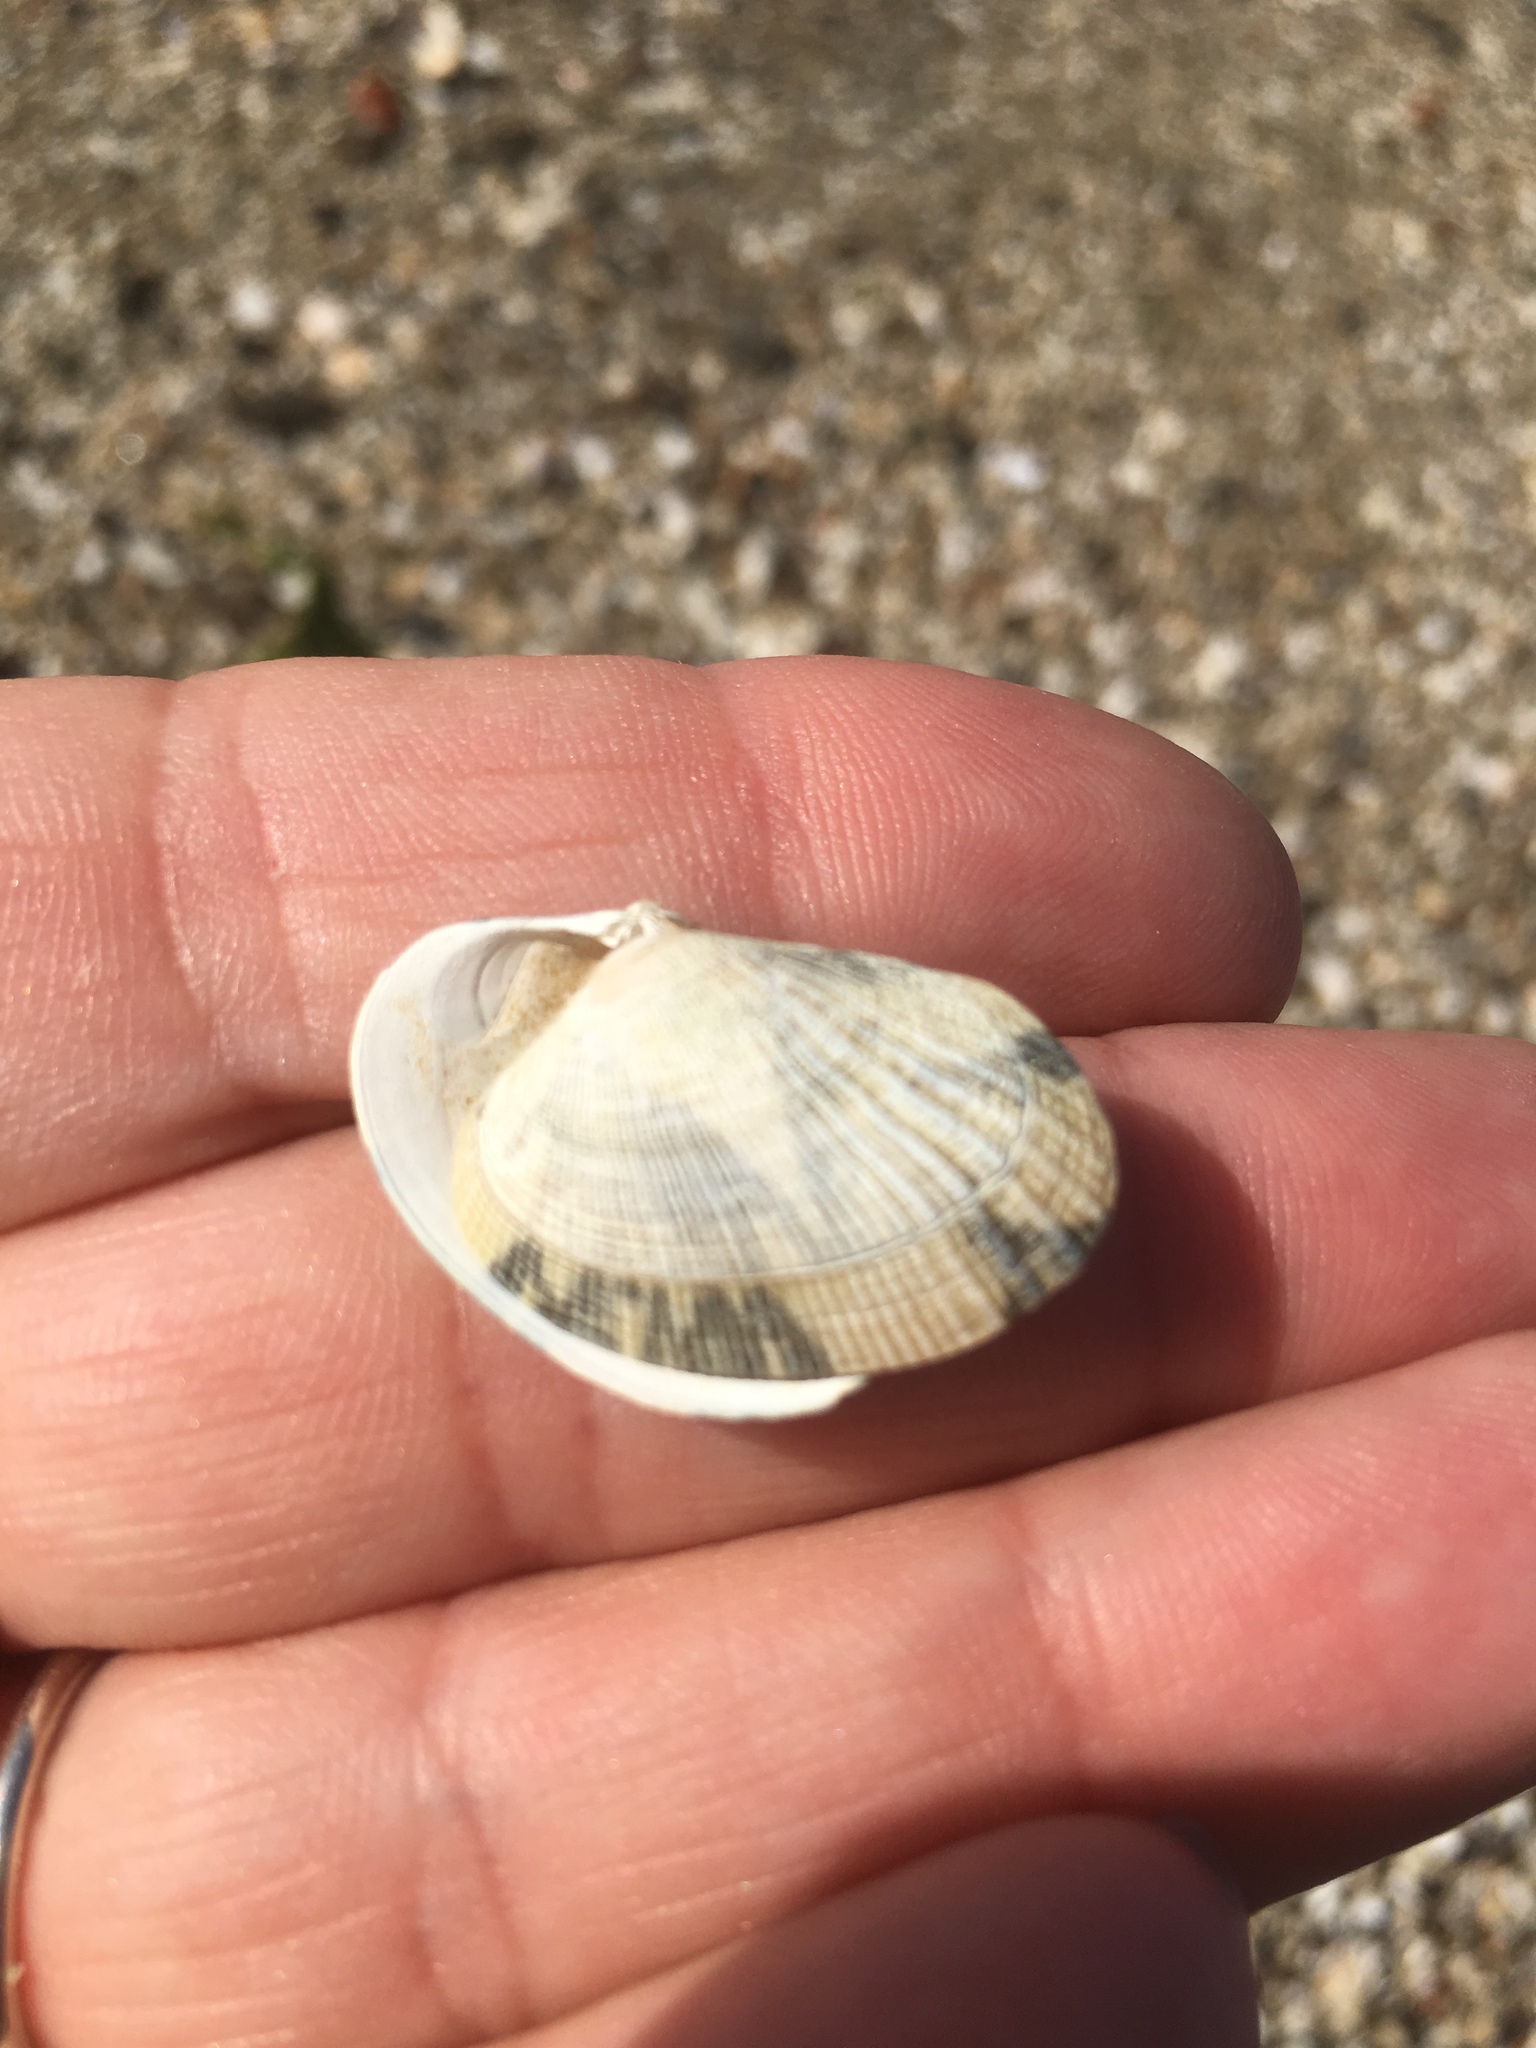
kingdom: Animalia
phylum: Mollusca
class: Bivalvia
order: Venerida
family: Veneridae
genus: Ruditapes
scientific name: Ruditapes philippinarum
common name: Manila clam
